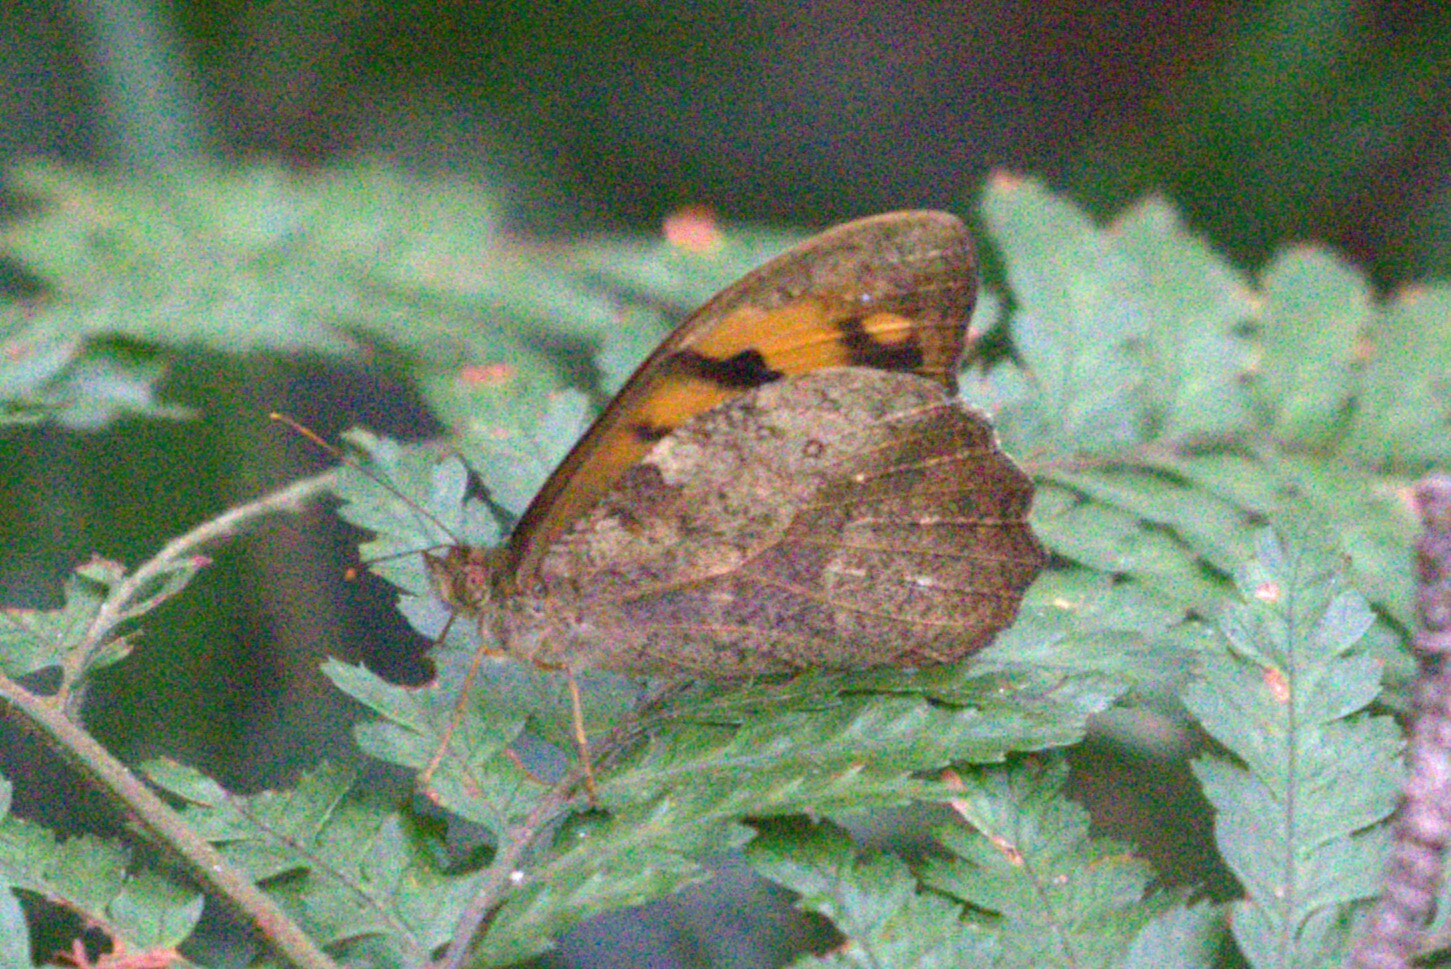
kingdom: Animalia
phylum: Arthropoda
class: Insecta
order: Lepidoptera
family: Nymphalidae
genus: Heteronympha
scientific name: Heteronympha mirifica
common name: Wonder brown
